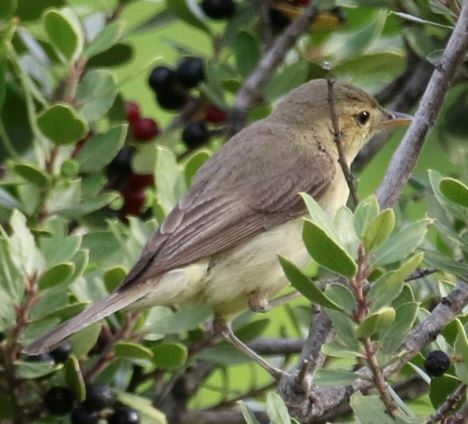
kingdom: Animalia
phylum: Chordata
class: Aves
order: Passeriformes
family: Acrocephalidae
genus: Hippolais
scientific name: Hippolais polyglotta
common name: Melodious warbler
